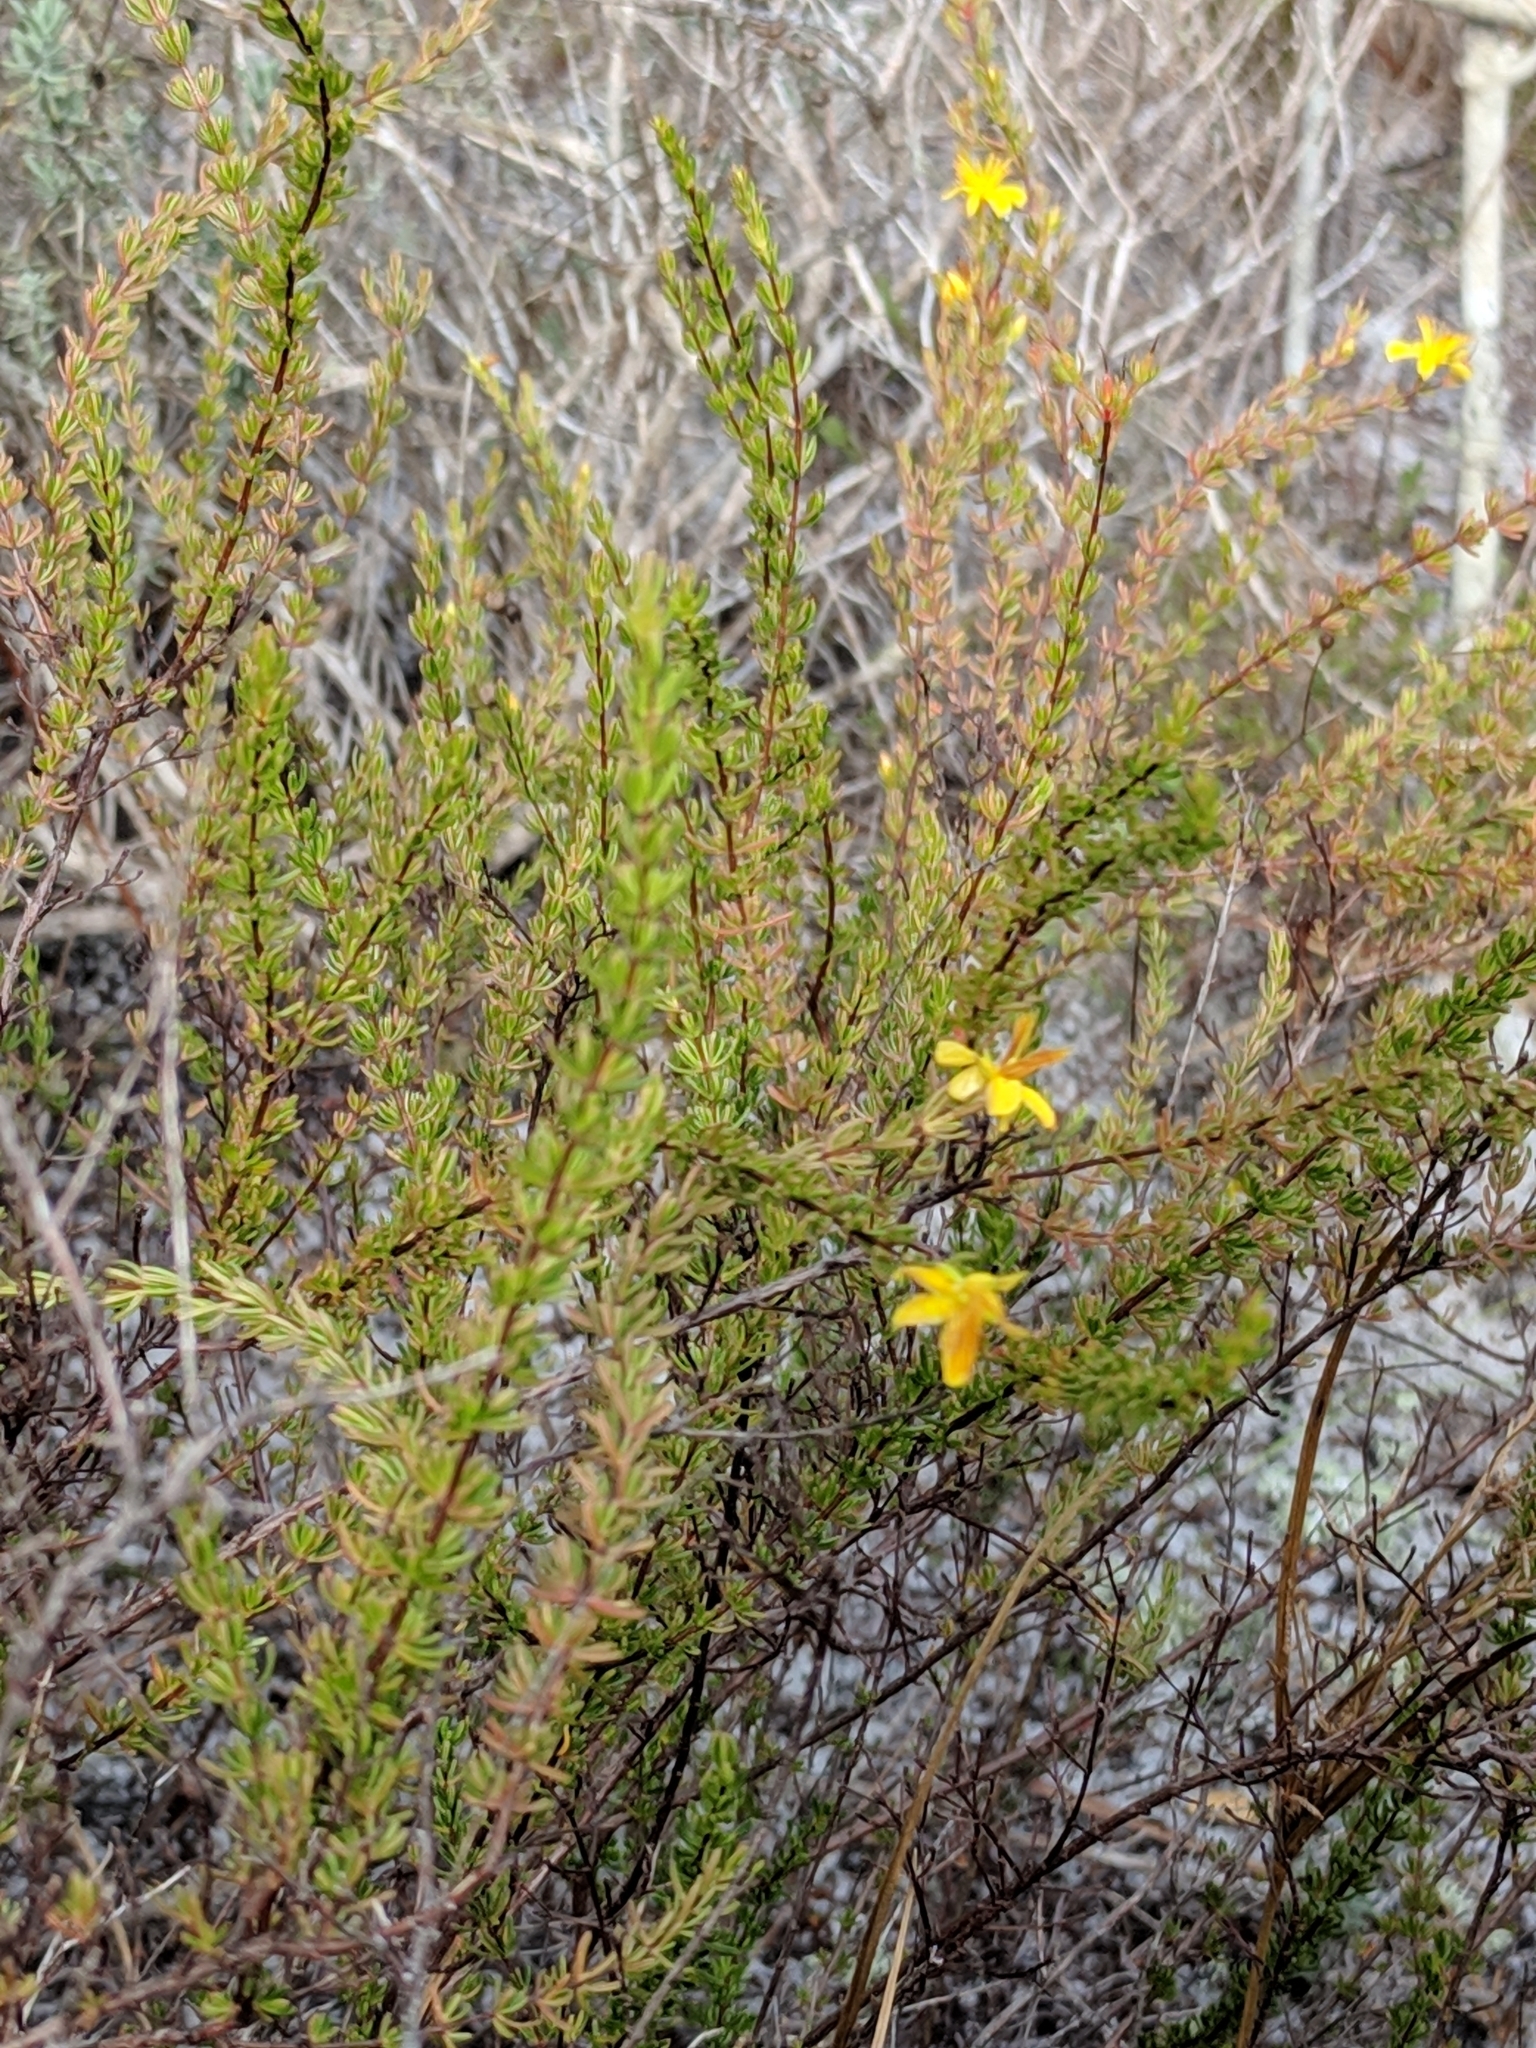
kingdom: Plantae
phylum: Tracheophyta
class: Magnoliopsida
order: Malpighiales
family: Hypericaceae
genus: Hypericum
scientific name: Hypericum tenuifolium
